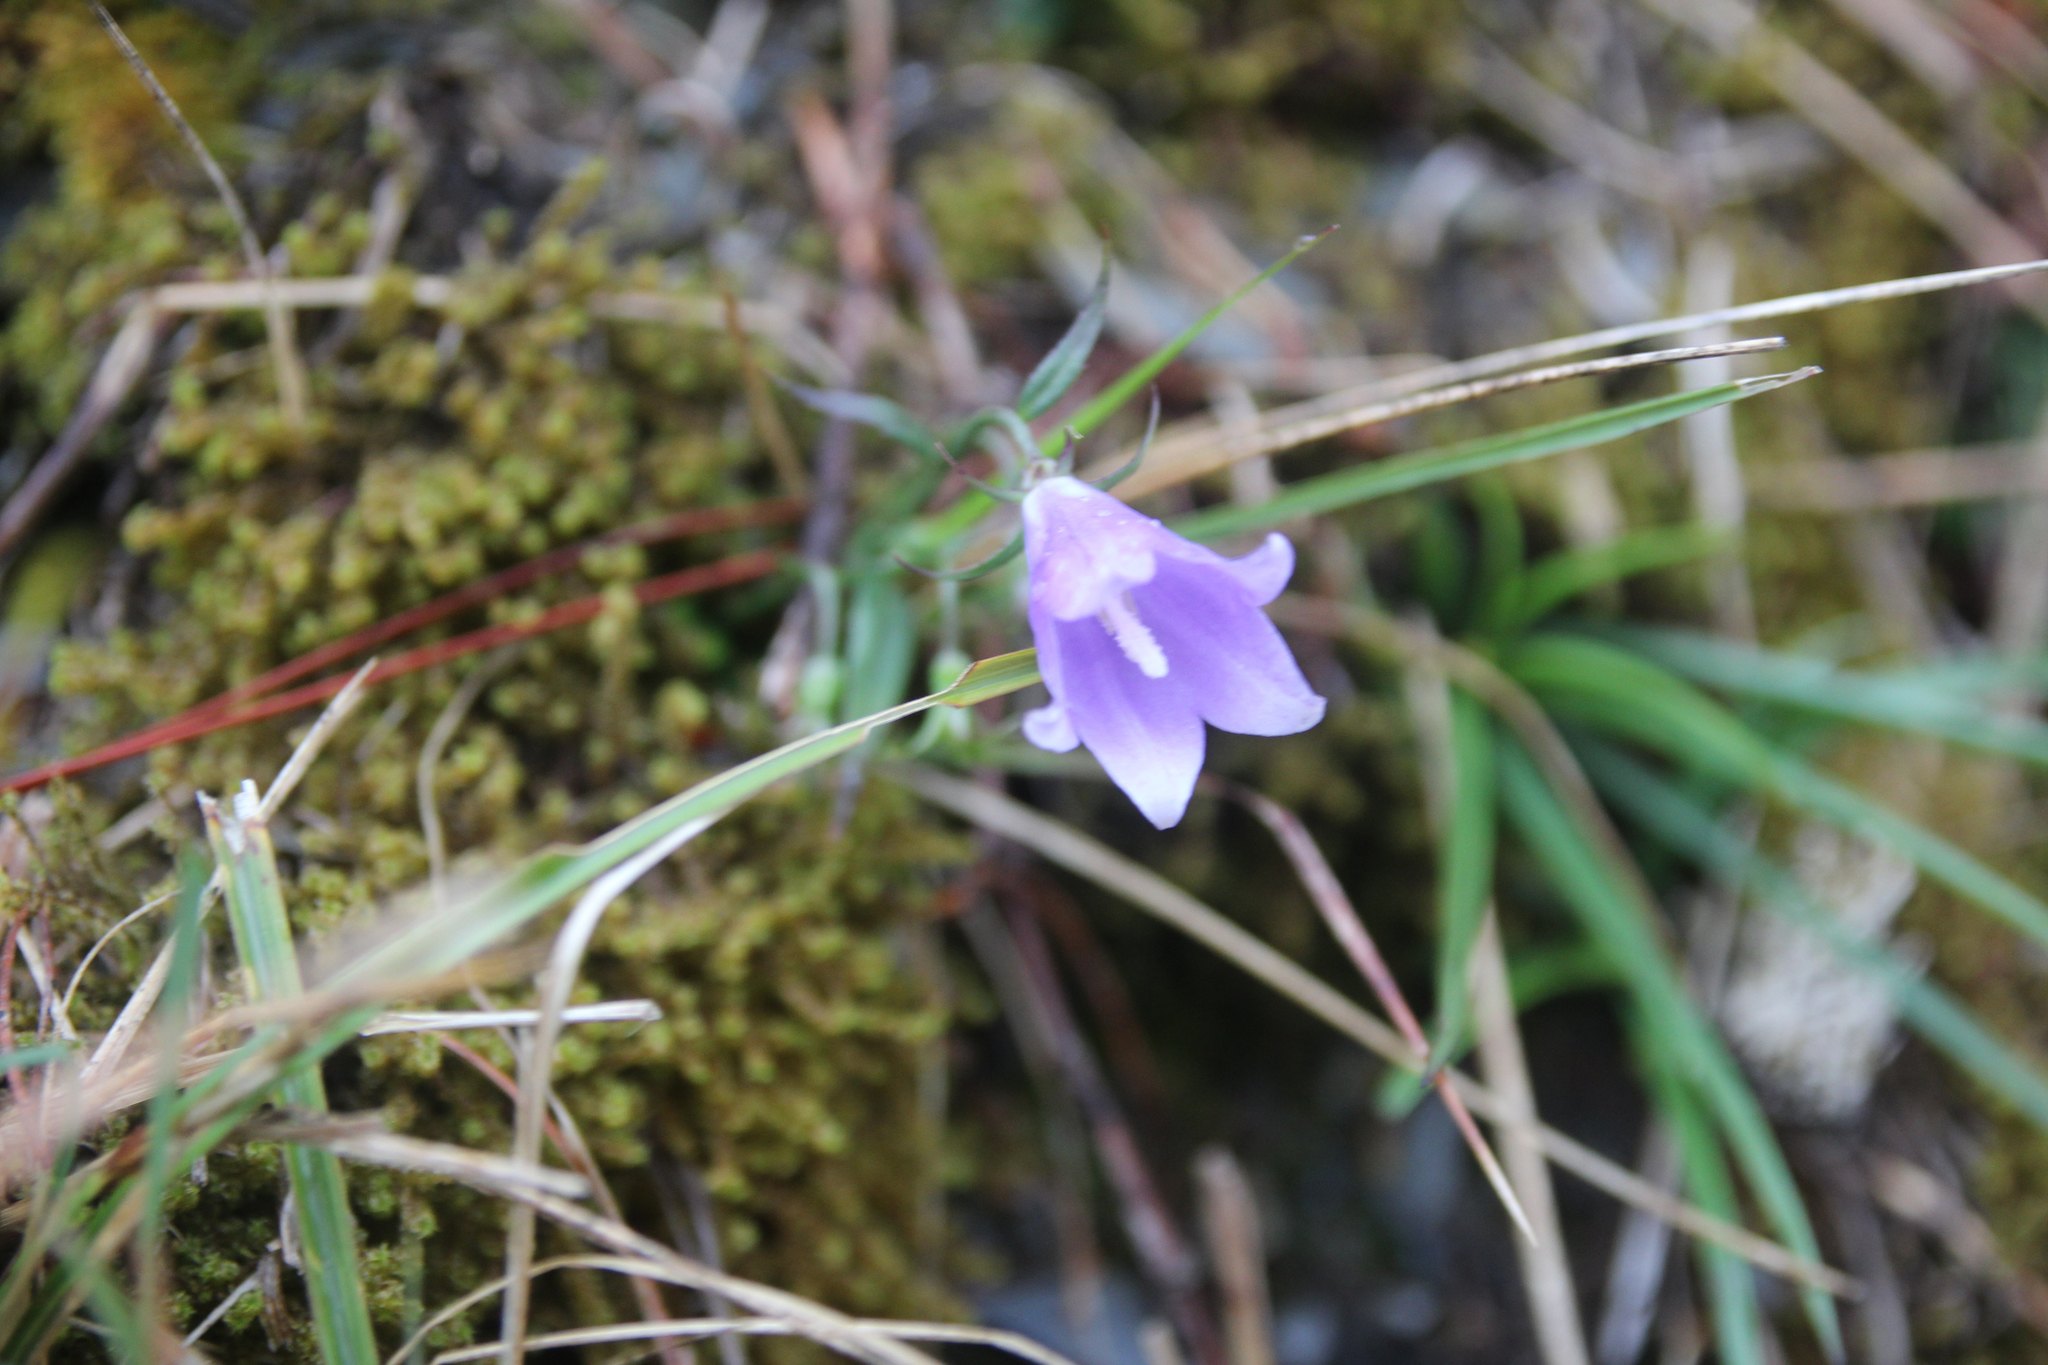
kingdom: Plantae
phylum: Tracheophyta
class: Magnoliopsida
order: Asterales
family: Campanulaceae
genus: Adenophora
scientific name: Adenophora morrisonensis
